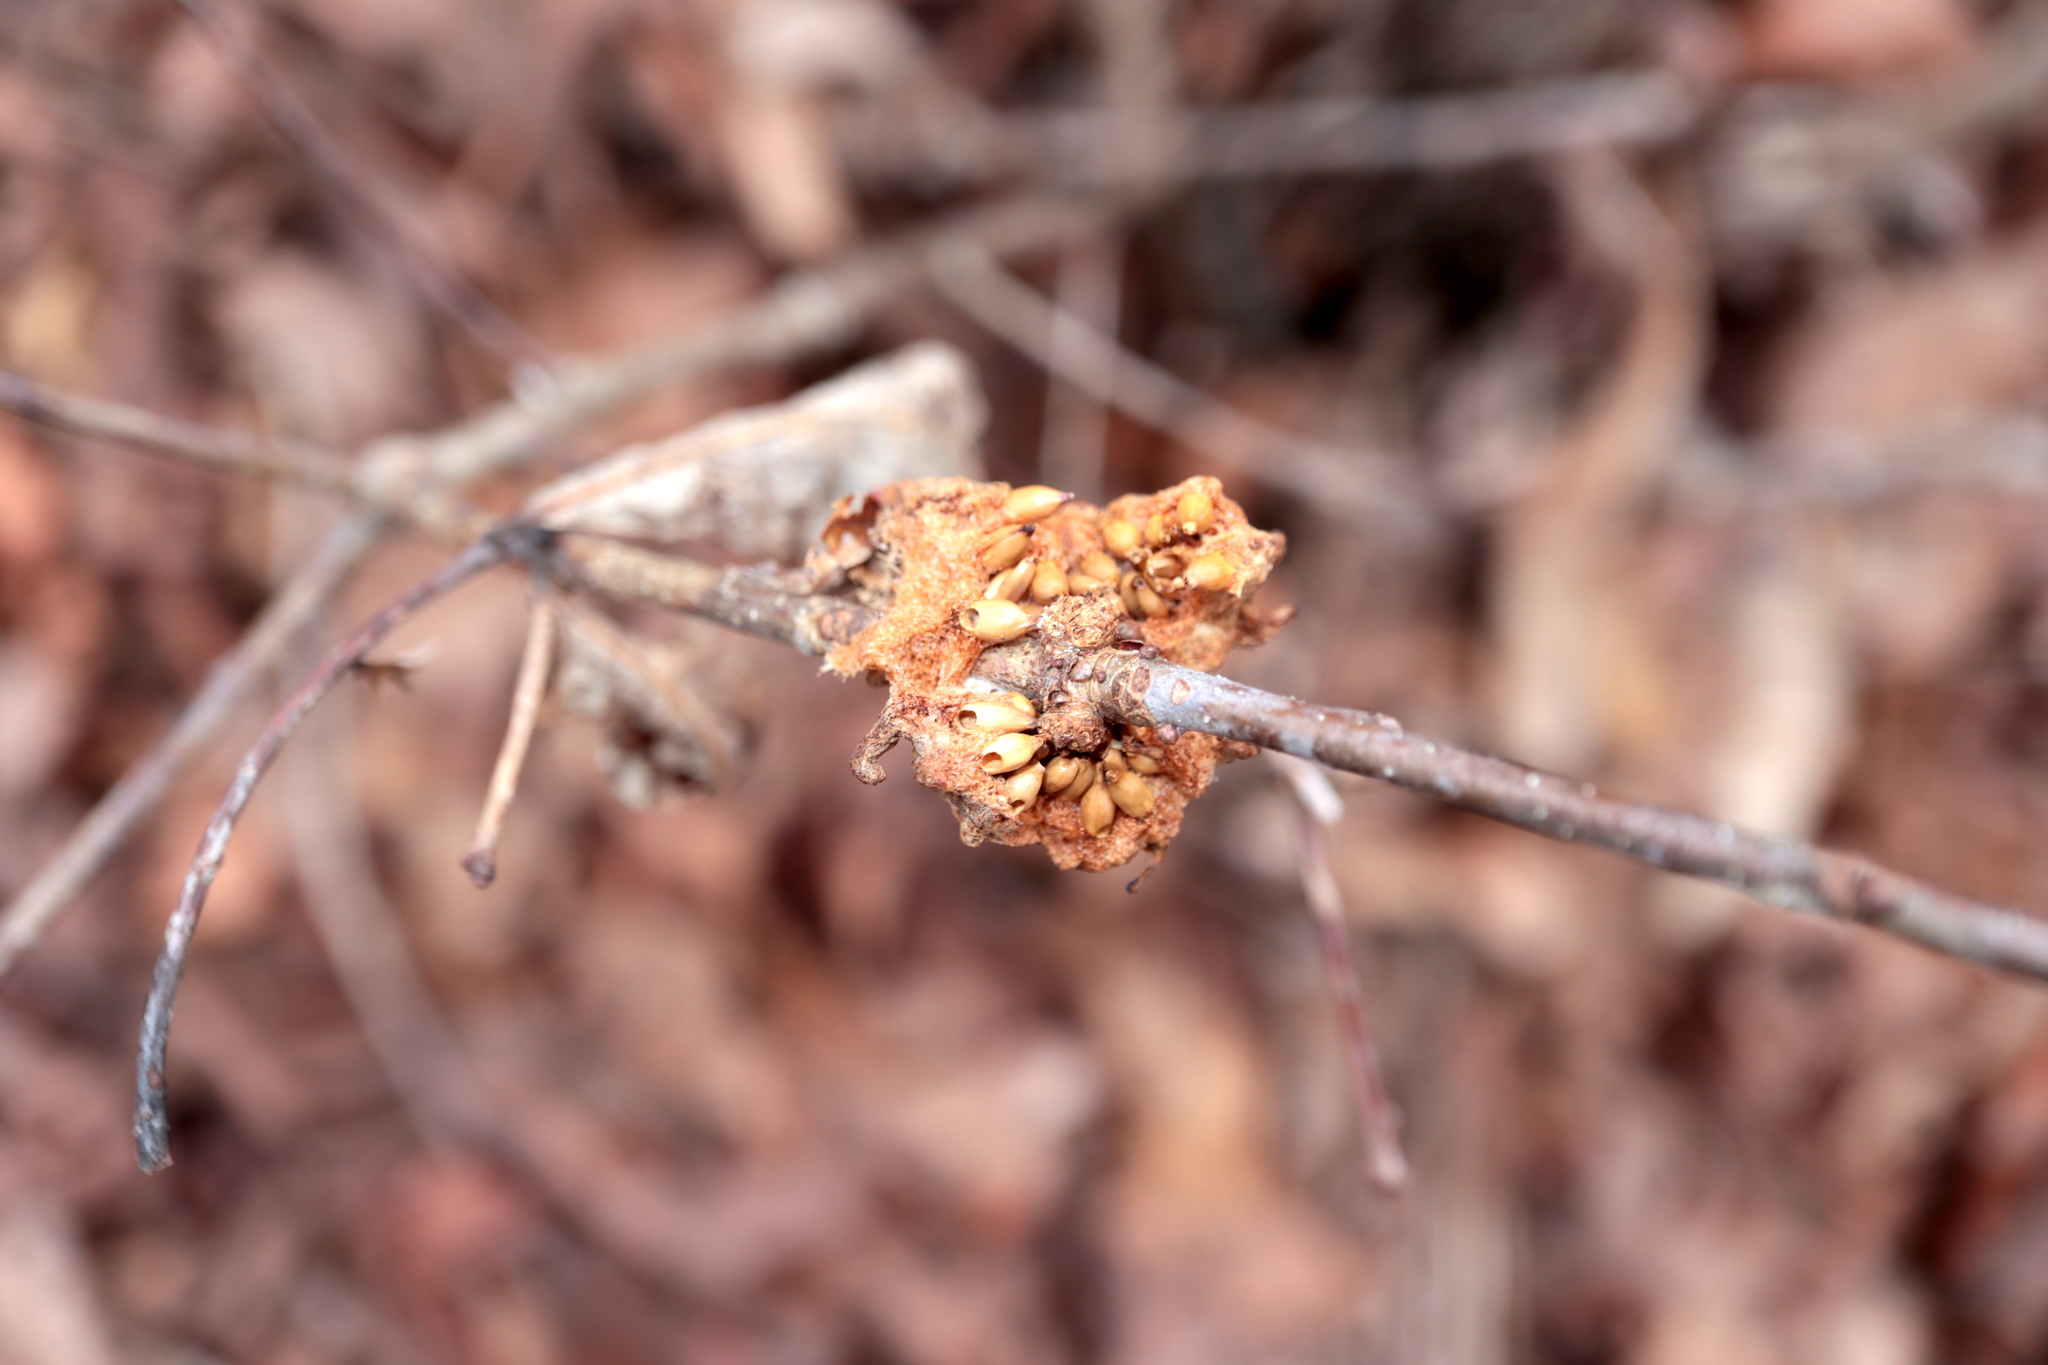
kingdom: Animalia
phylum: Arthropoda
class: Insecta
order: Hymenoptera
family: Cynipidae
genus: Callirhytis
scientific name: Callirhytis
